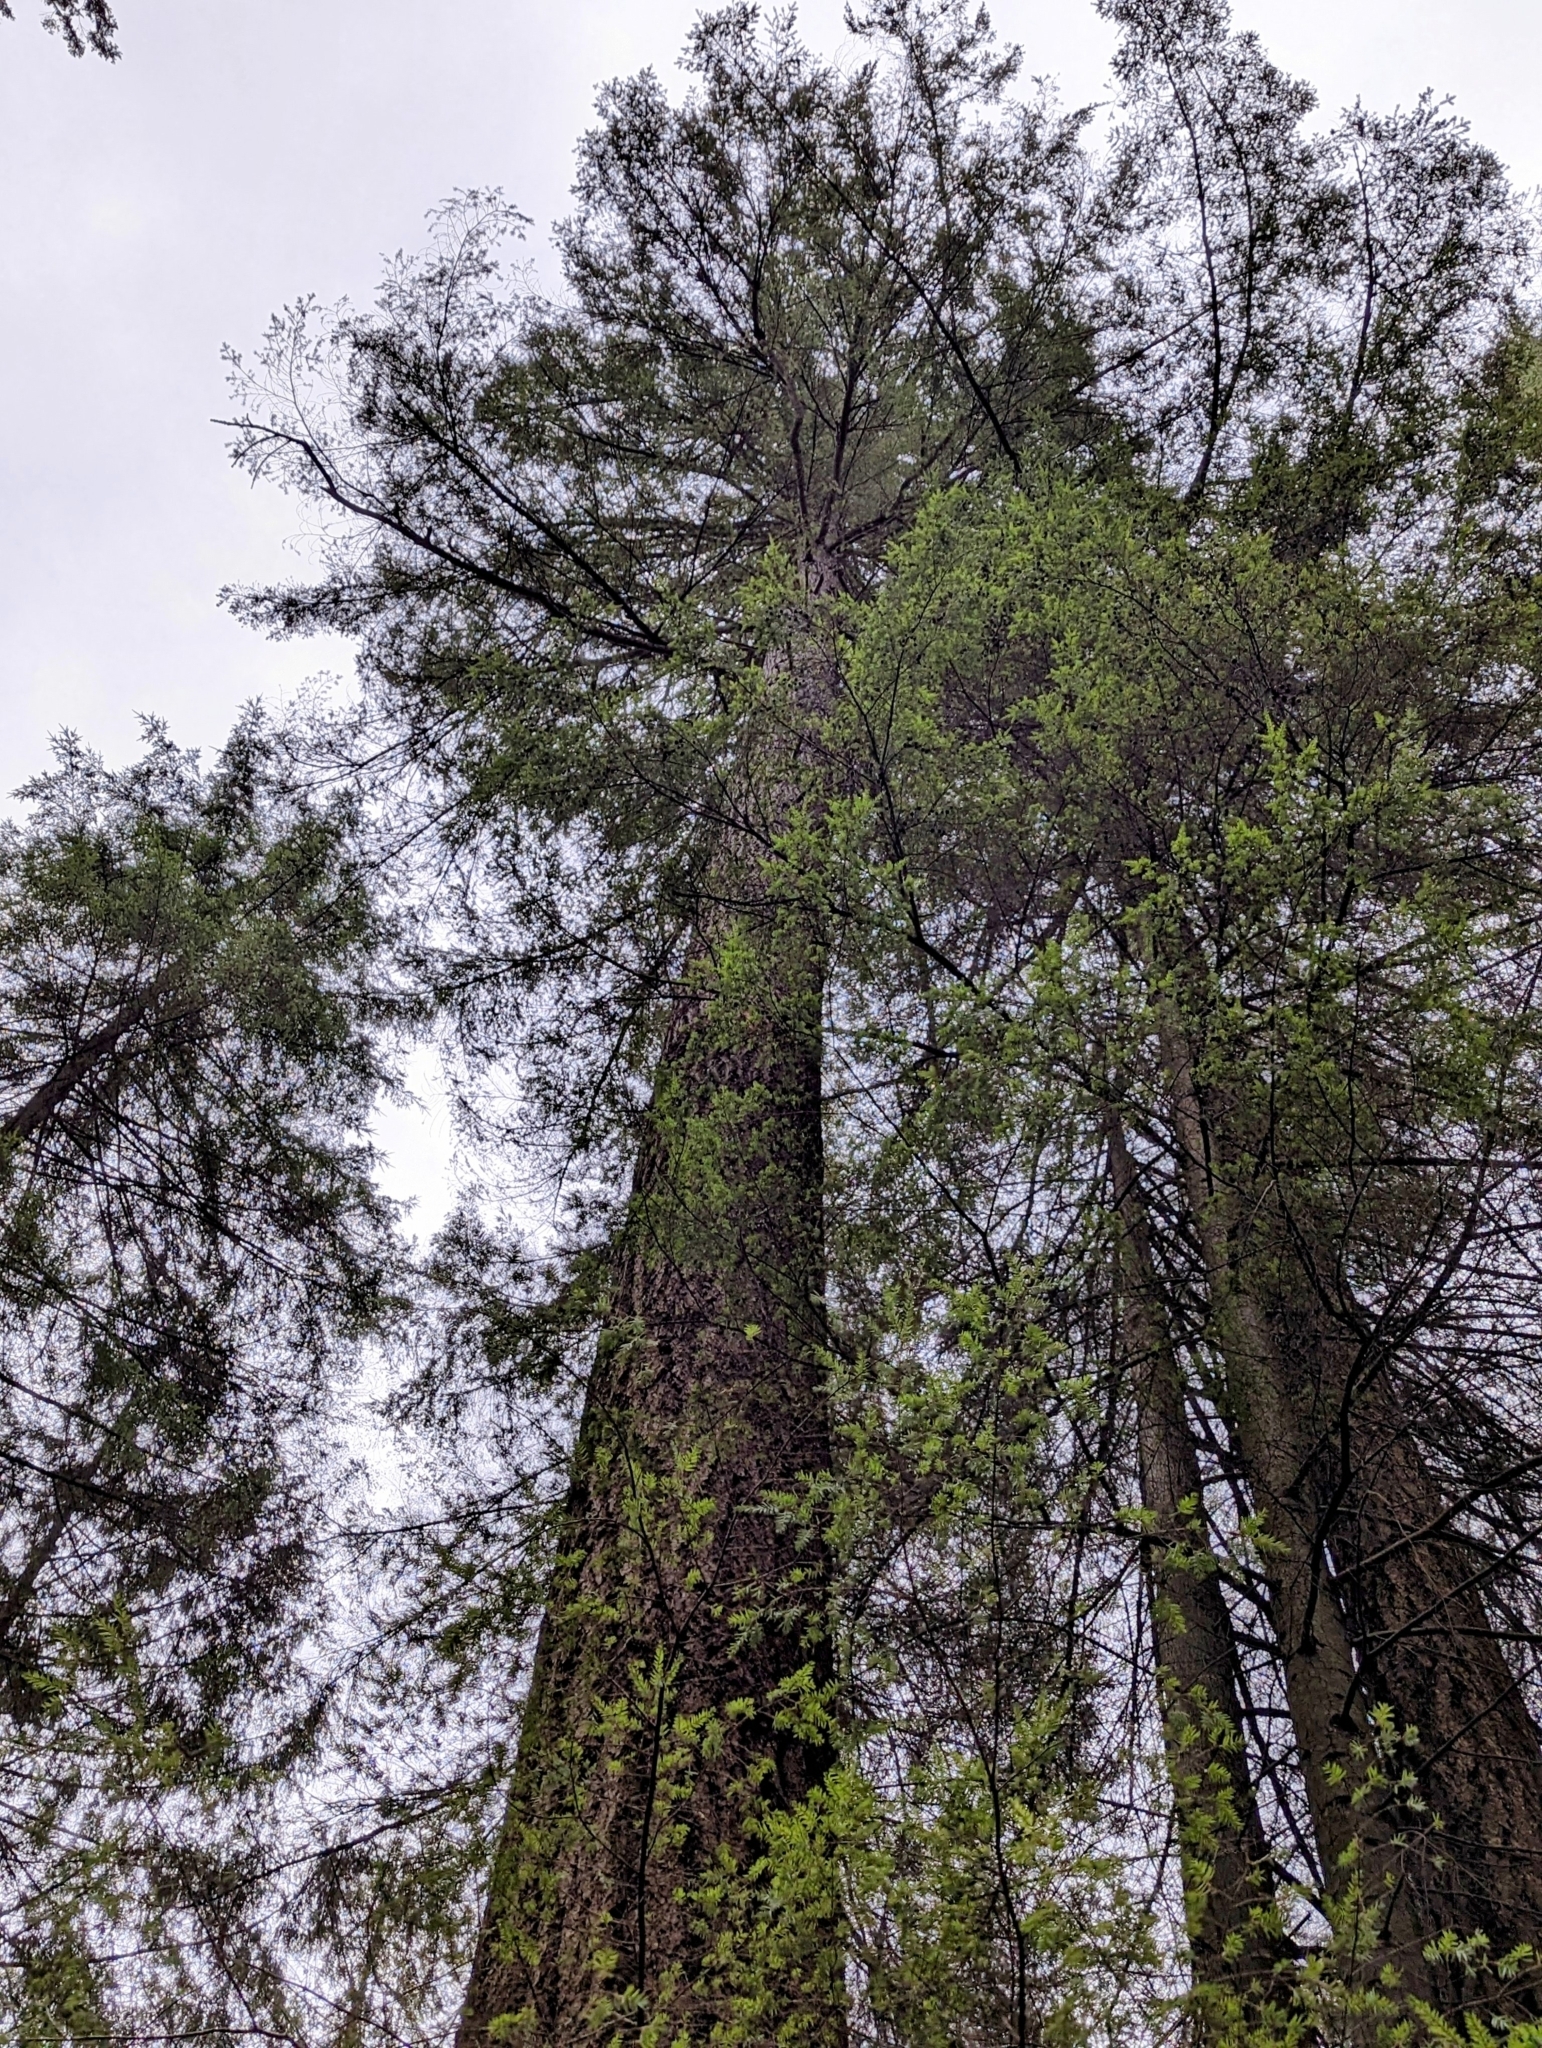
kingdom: Plantae
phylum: Tracheophyta
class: Pinopsida
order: Pinales
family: Pinaceae
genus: Pseudotsuga
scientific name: Pseudotsuga menziesii
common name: Douglas fir
